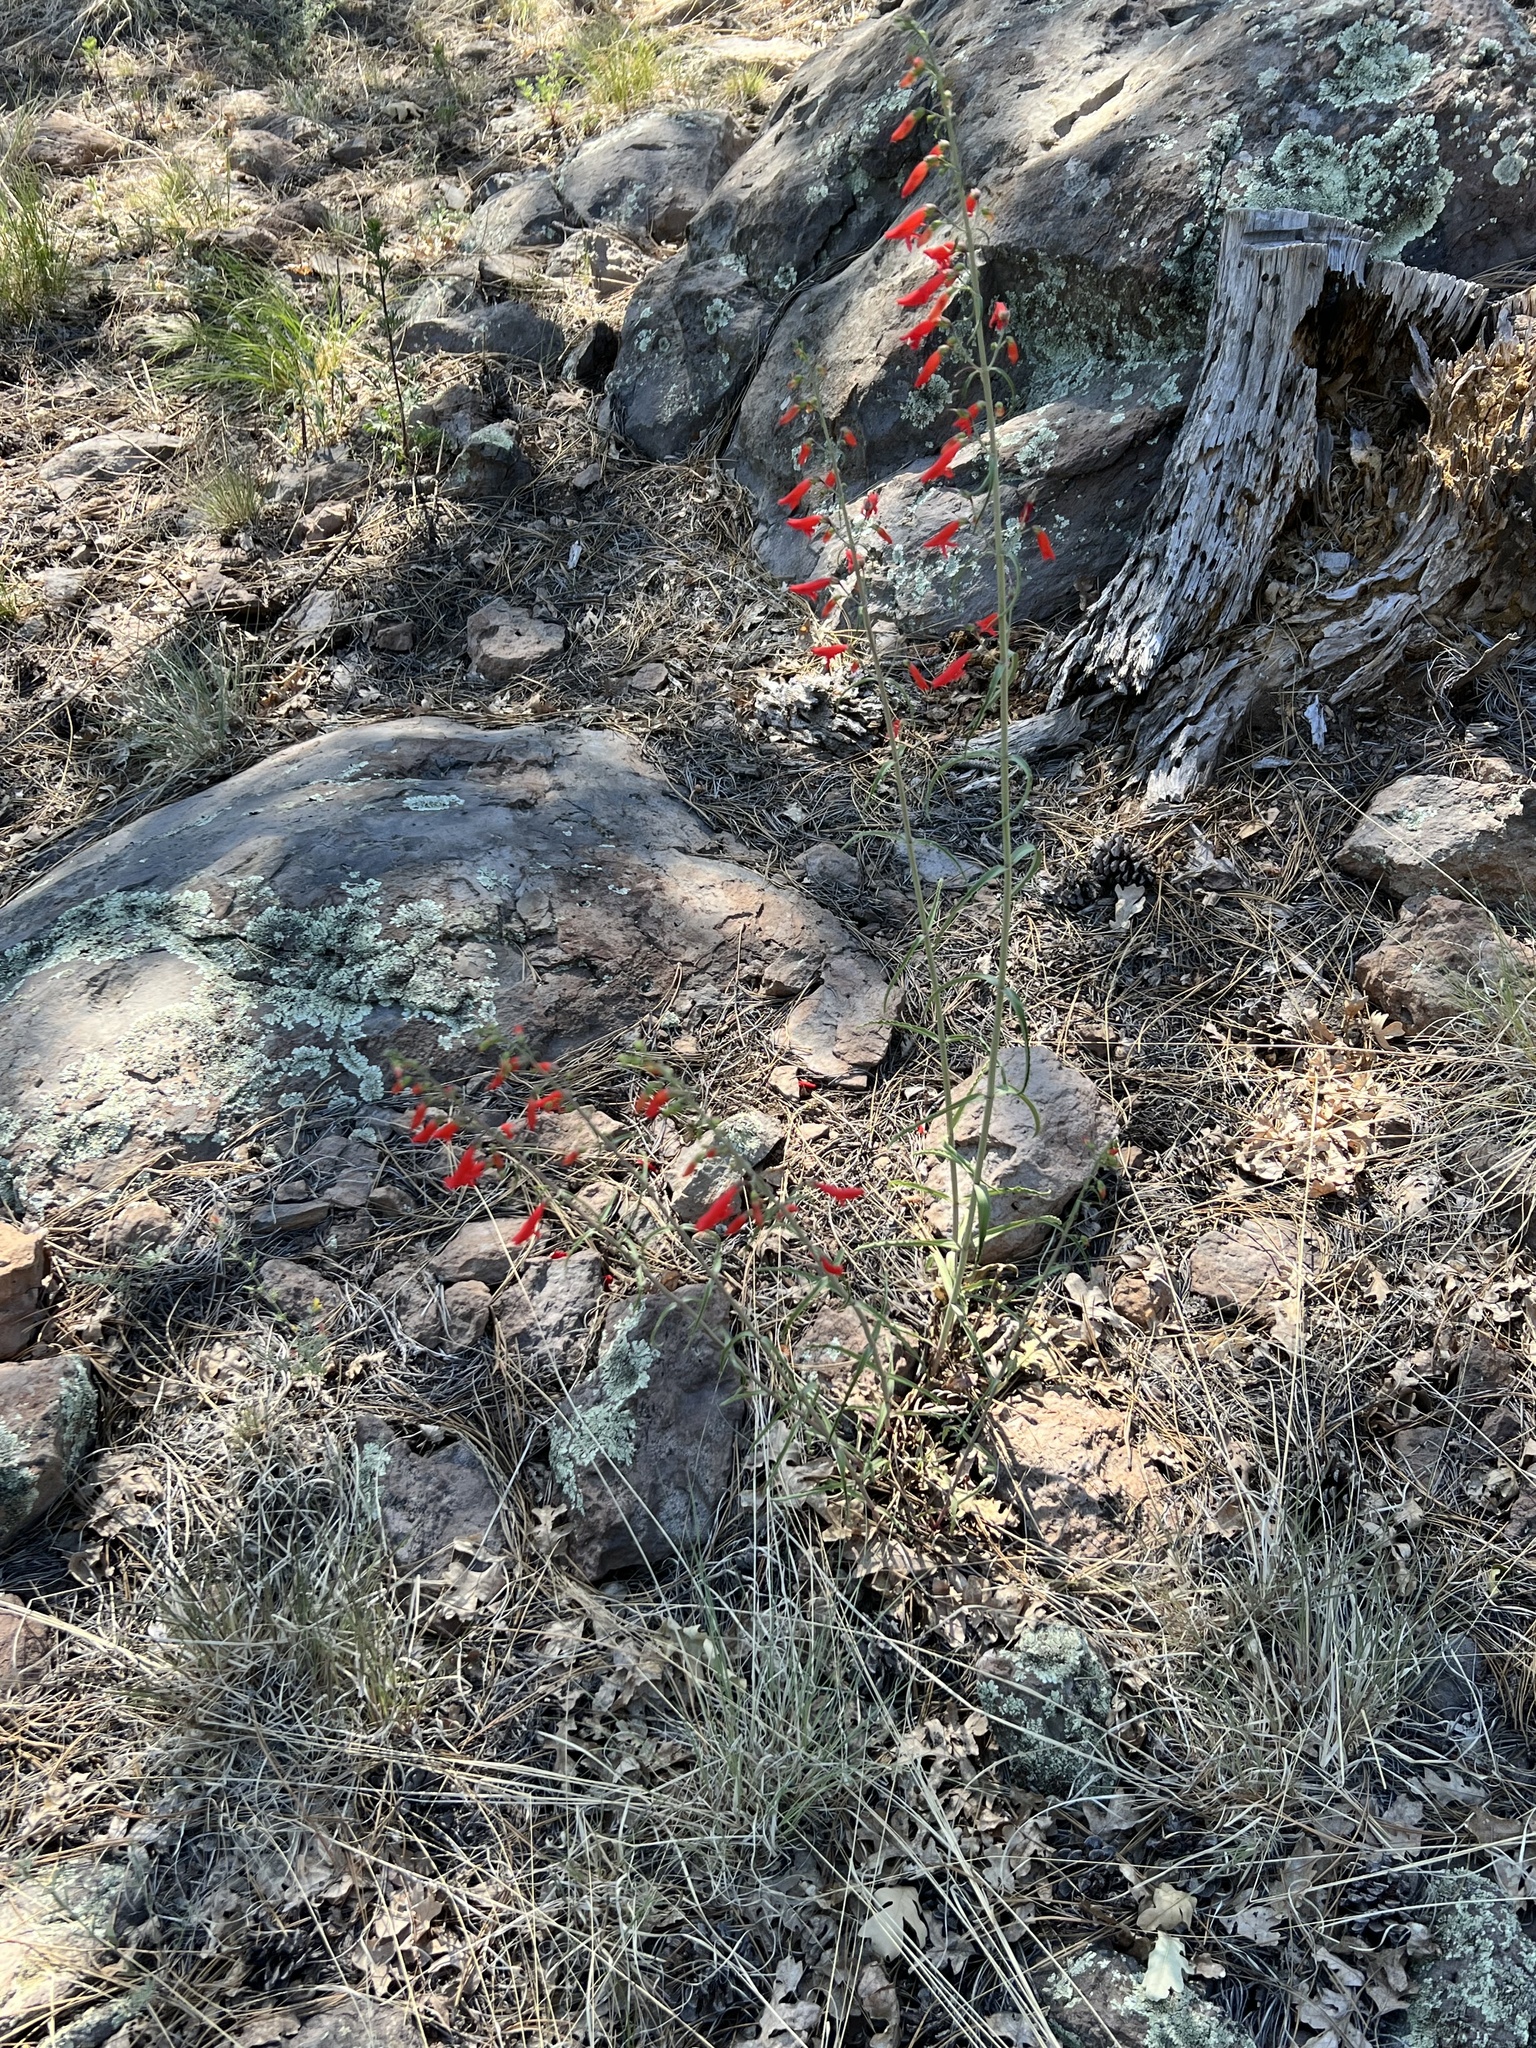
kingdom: Plantae
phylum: Tracheophyta
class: Magnoliopsida
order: Lamiales
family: Plantaginaceae
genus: Penstemon
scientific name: Penstemon barbatus
